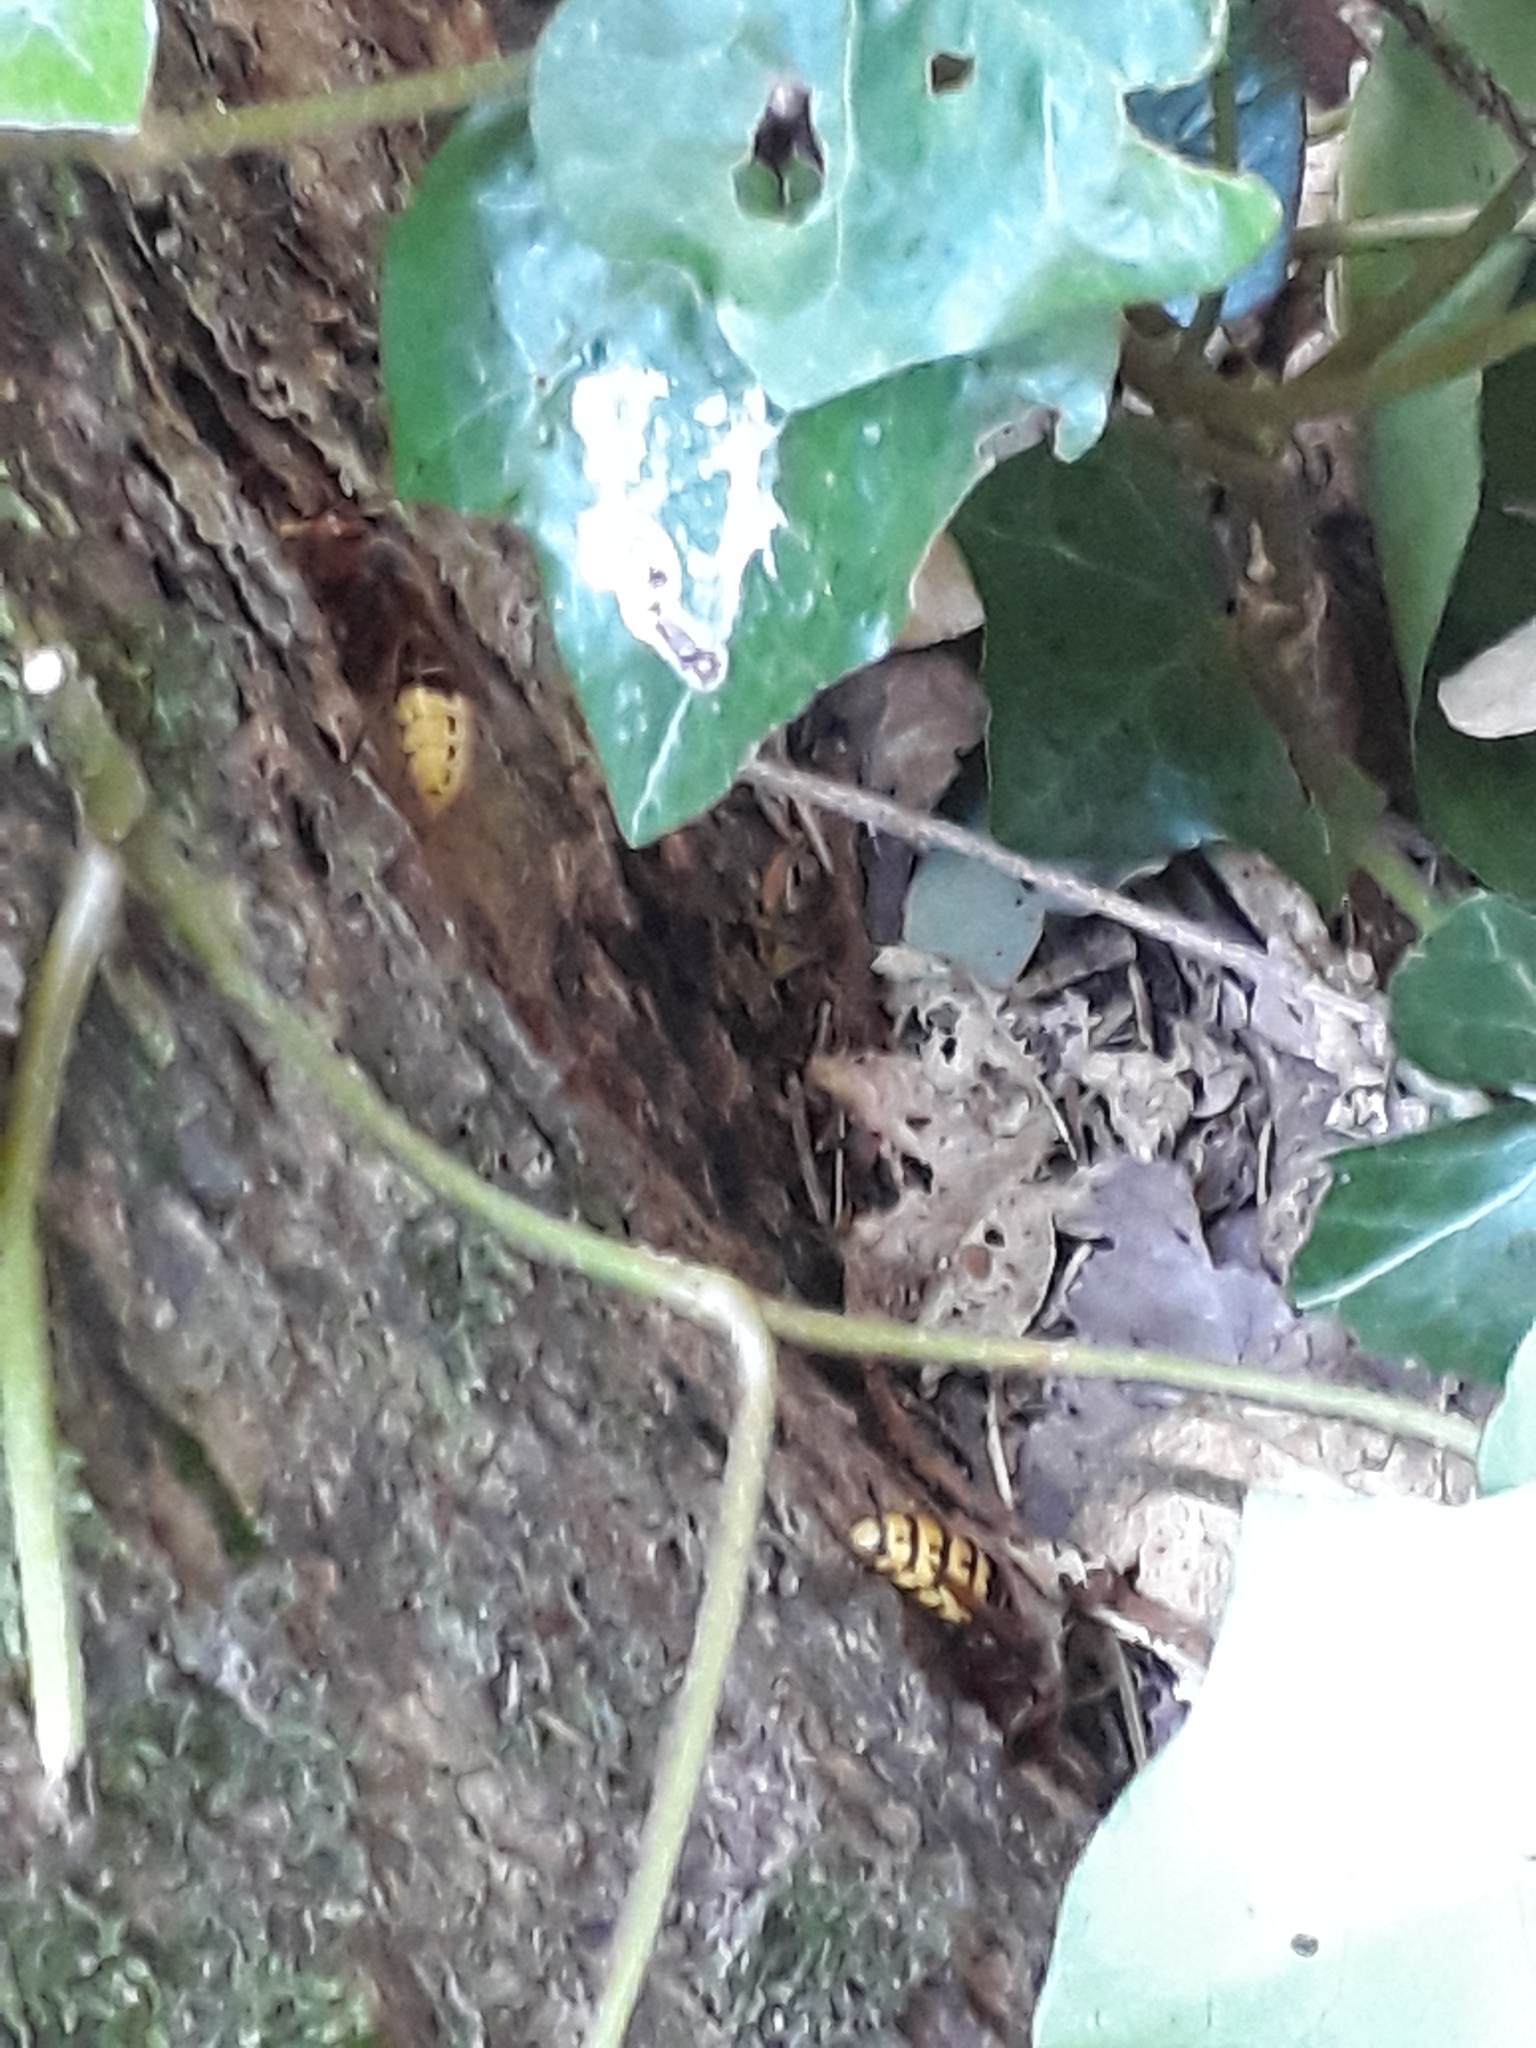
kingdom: Animalia
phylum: Arthropoda
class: Insecta
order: Hymenoptera
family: Vespidae
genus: Vespa
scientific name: Vespa crabro
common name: Hornet
